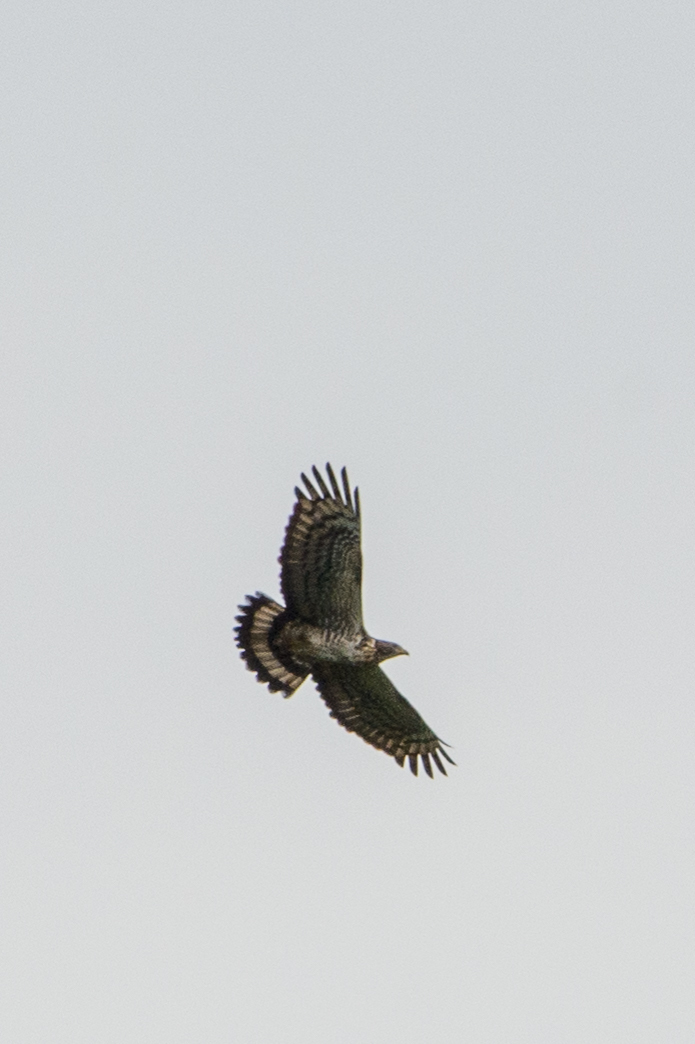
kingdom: Animalia
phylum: Chordata
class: Aves
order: Accipitriformes
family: Accipitridae
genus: Pernis
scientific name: Pernis ptilorhynchus
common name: Crested honey buzzard
